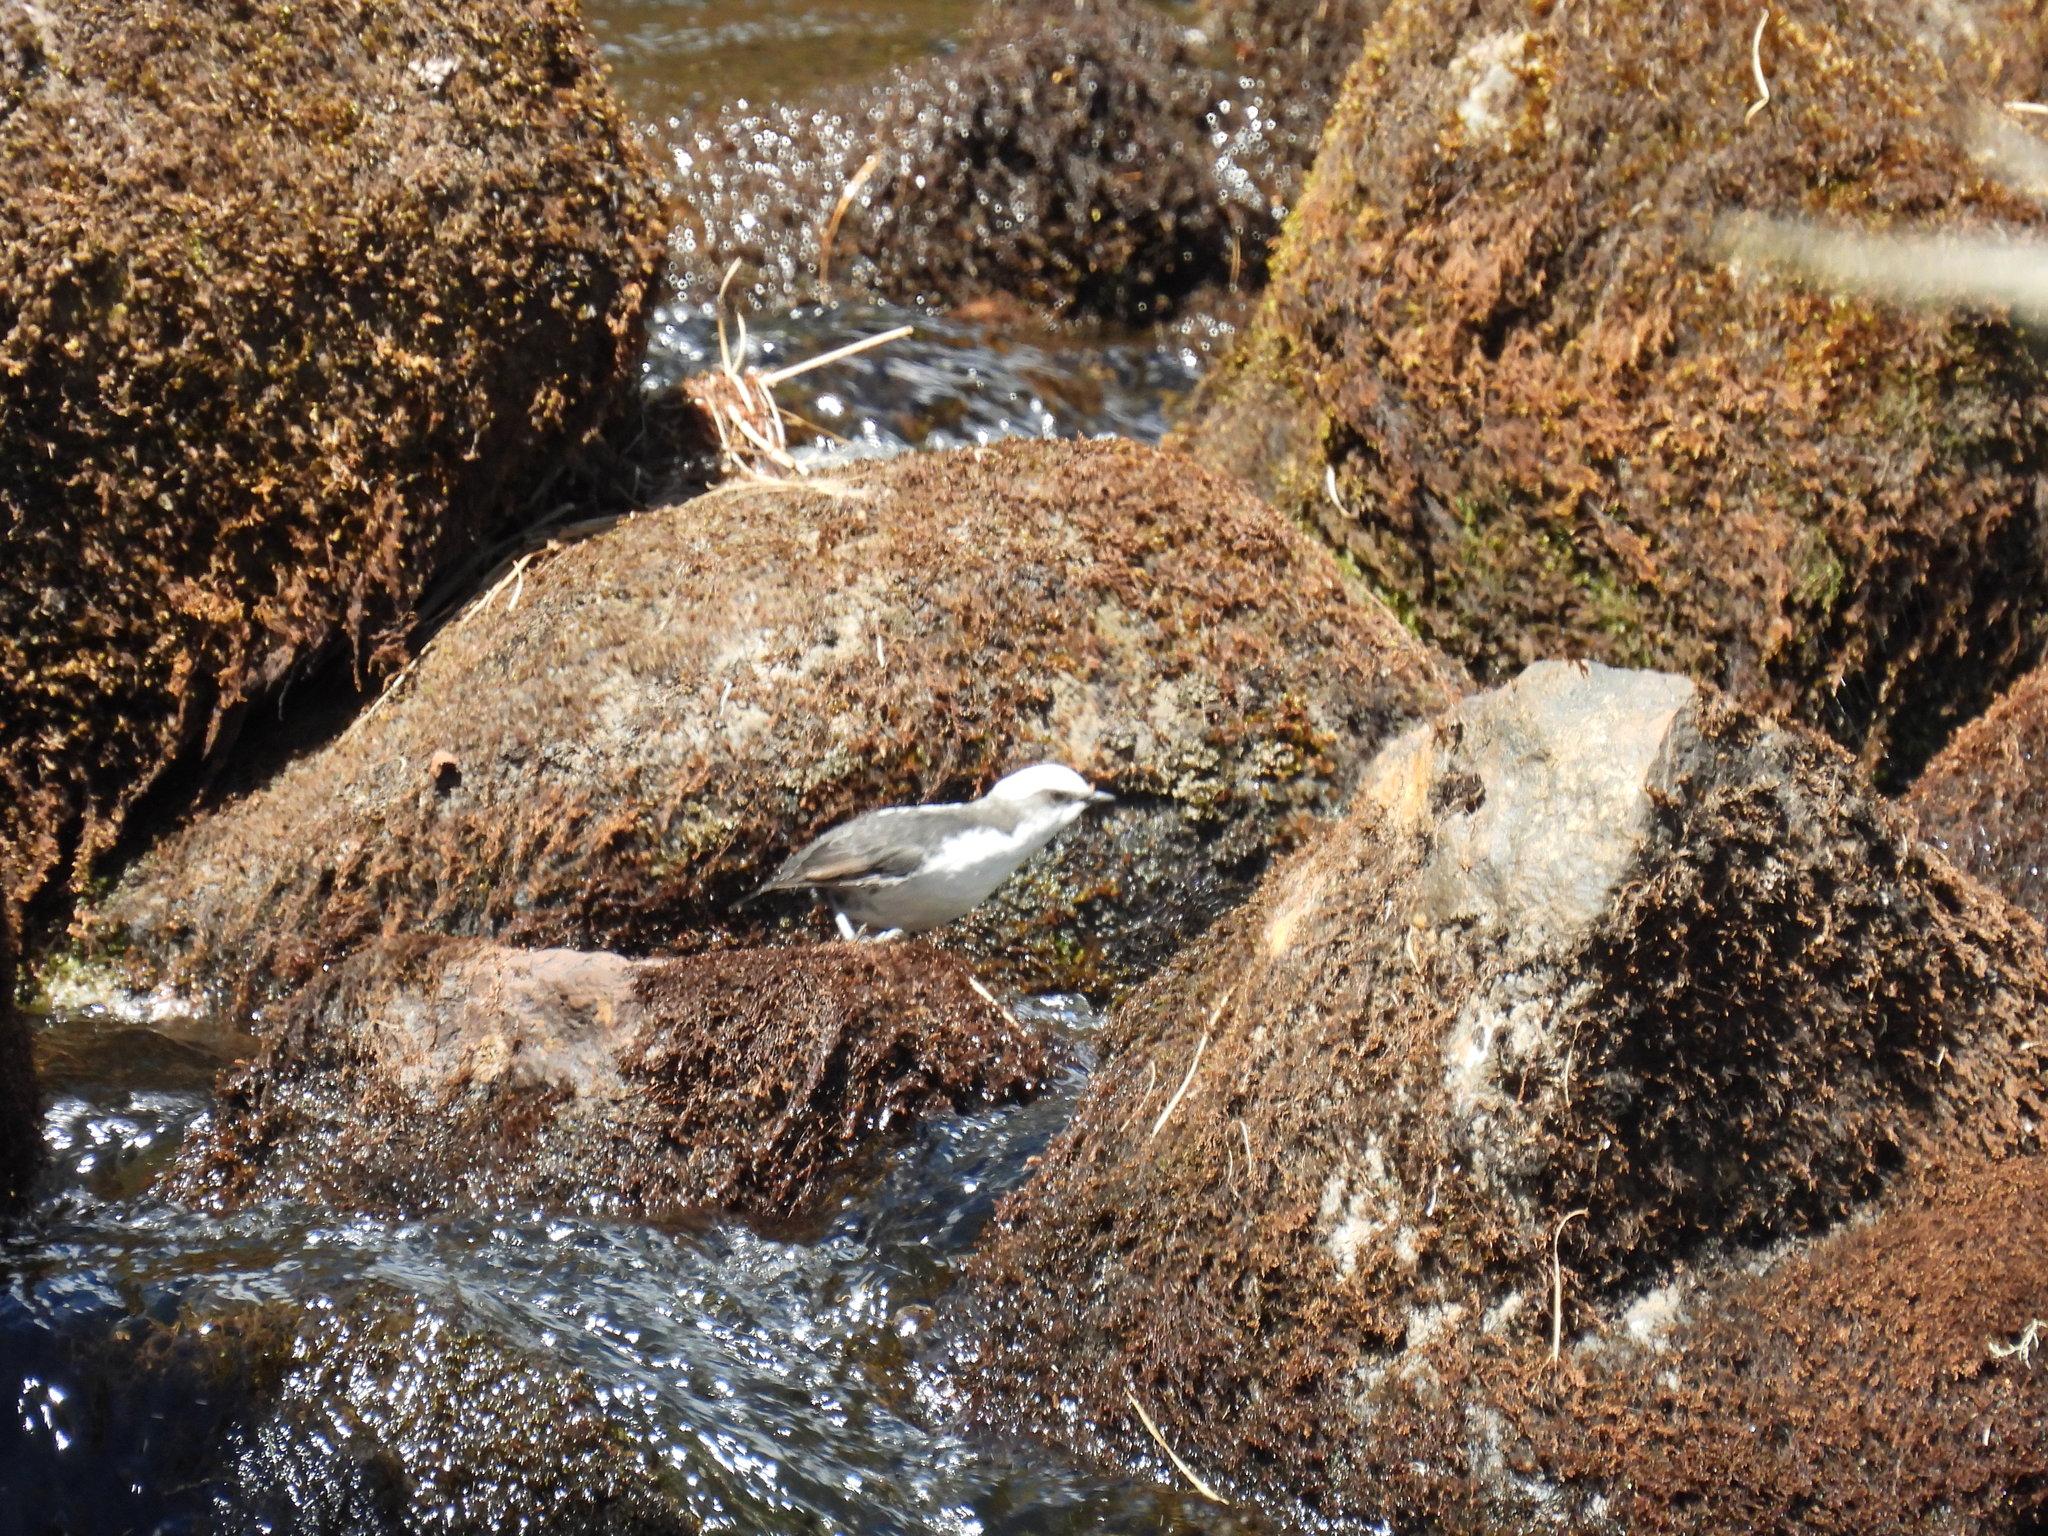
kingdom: Animalia
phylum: Chordata
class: Aves
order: Passeriformes
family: Cinclidae
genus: Cinclus
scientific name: Cinclus leucocephalus
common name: White-capped dipper
